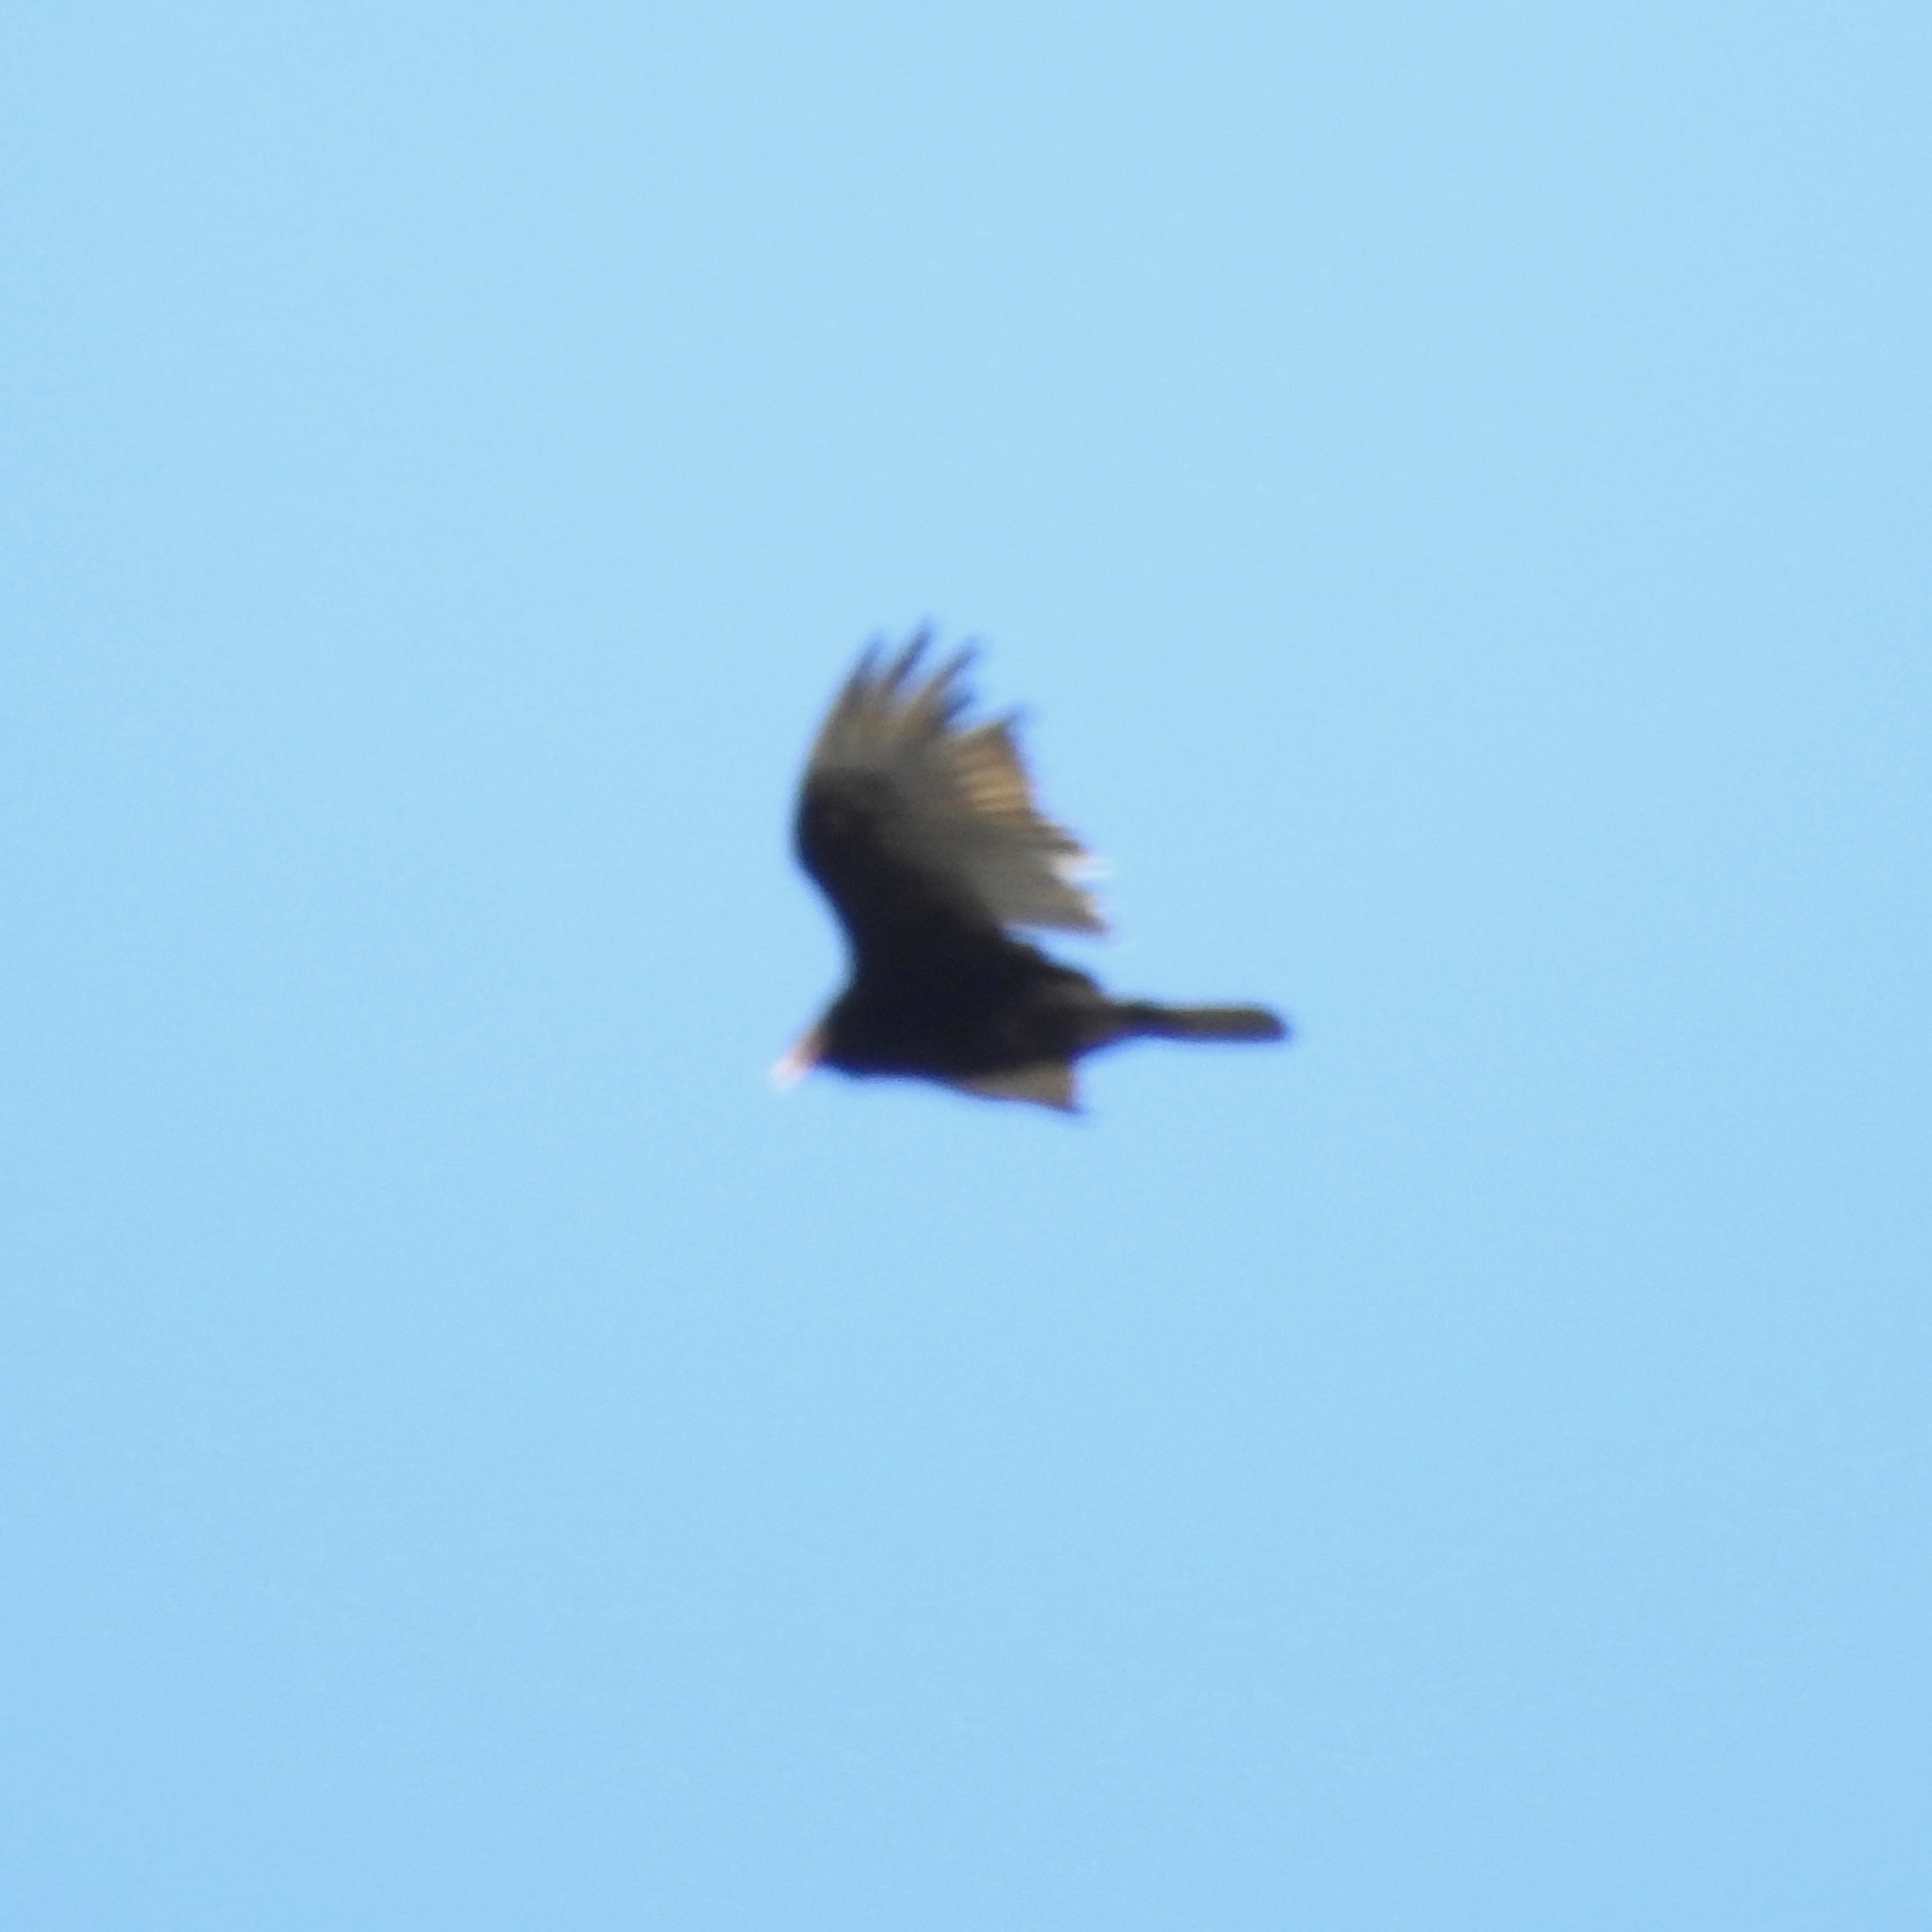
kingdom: Animalia
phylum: Chordata
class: Aves
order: Accipitriformes
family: Cathartidae
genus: Cathartes
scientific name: Cathartes aura
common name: Turkey vulture
